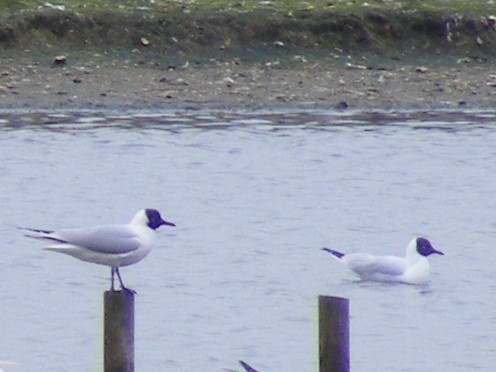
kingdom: Animalia
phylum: Chordata
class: Aves
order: Charadriiformes
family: Laridae
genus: Chroicocephalus
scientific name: Chroicocephalus ridibundus
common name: Black-headed gull
